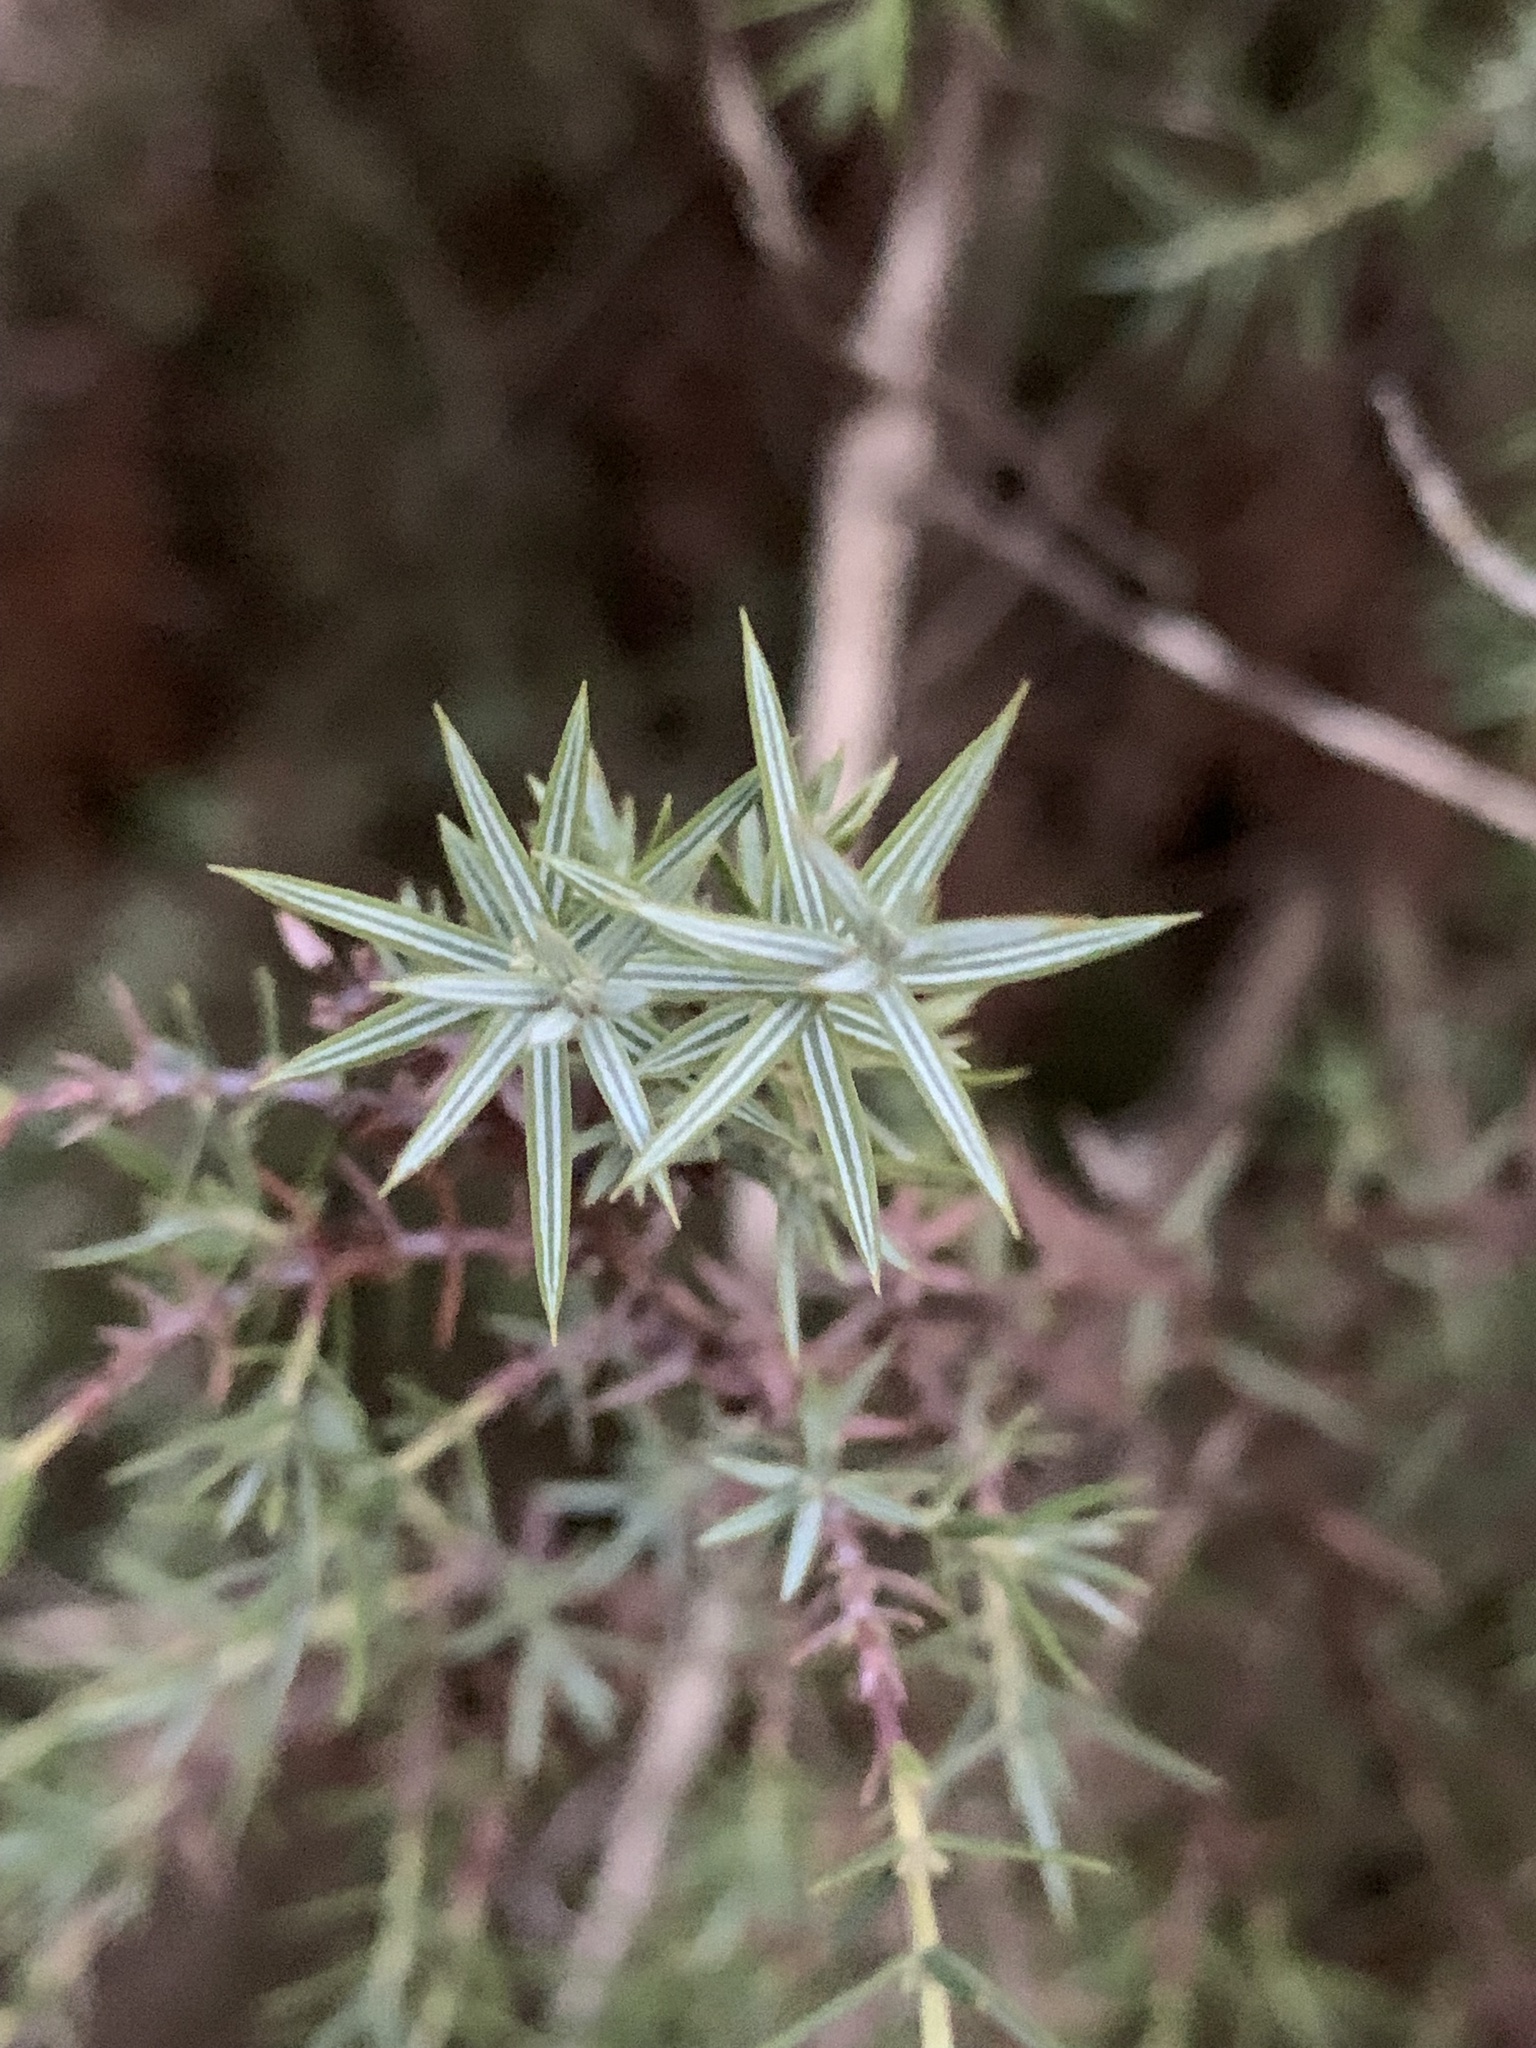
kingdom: Plantae
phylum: Tracheophyta
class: Pinopsida
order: Pinales
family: Cupressaceae
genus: Juniperus
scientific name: Juniperus oxycedrus
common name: Prickly juniper
